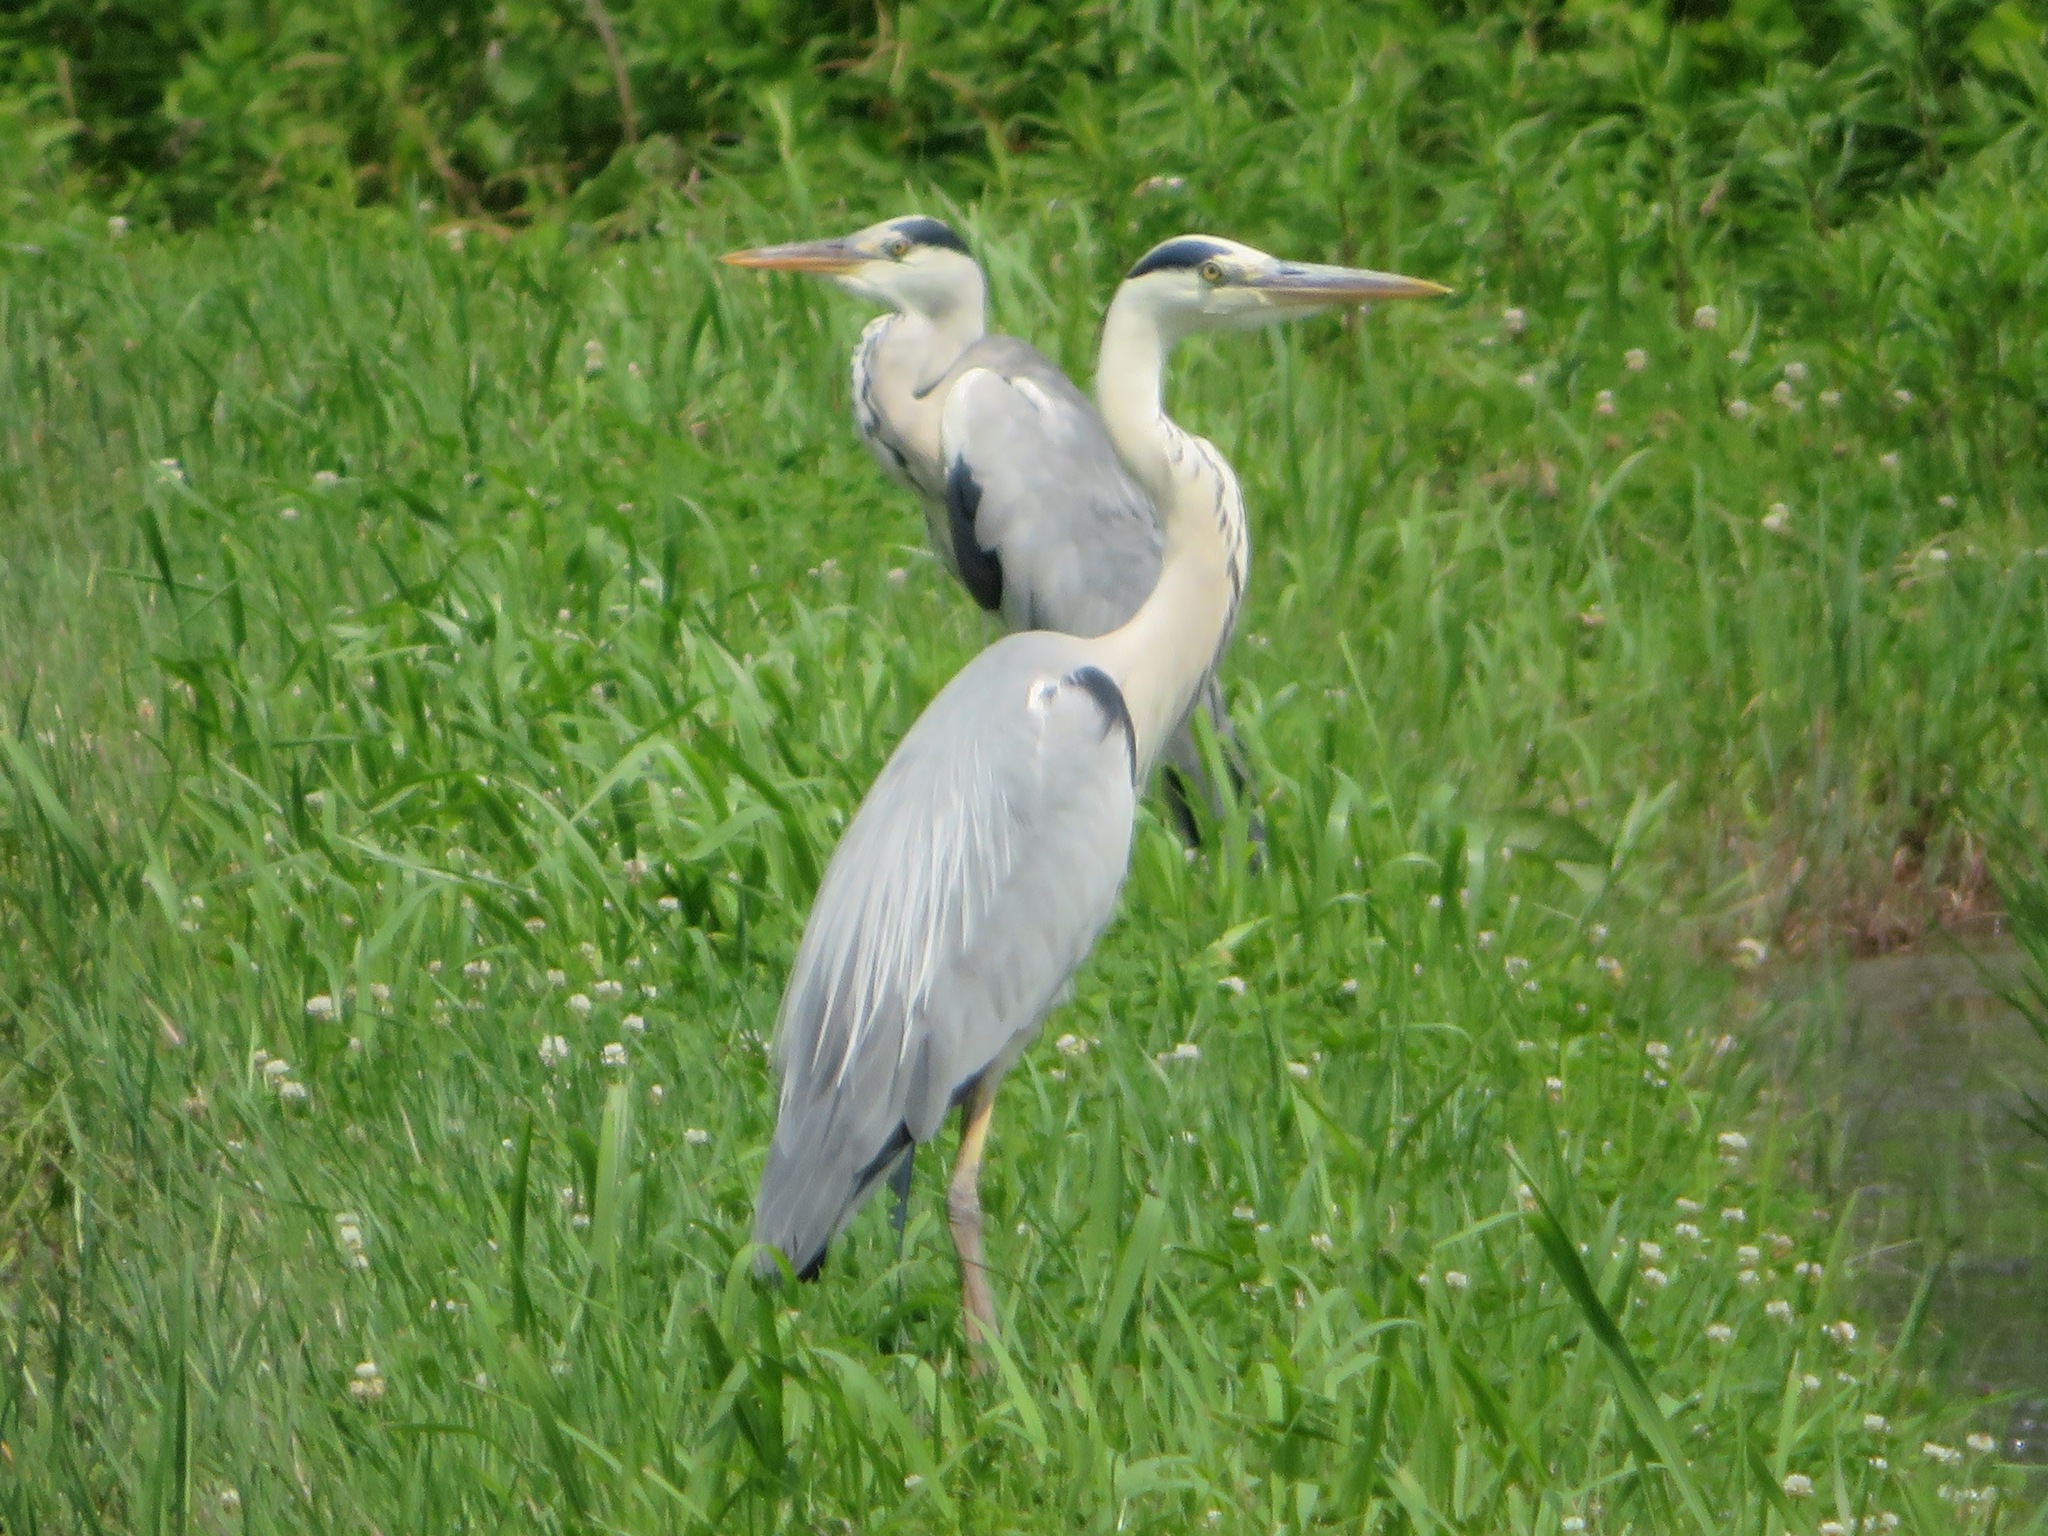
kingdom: Animalia
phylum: Chordata
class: Aves
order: Pelecaniformes
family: Ardeidae
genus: Ardea
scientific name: Ardea cinerea
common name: Grey heron
